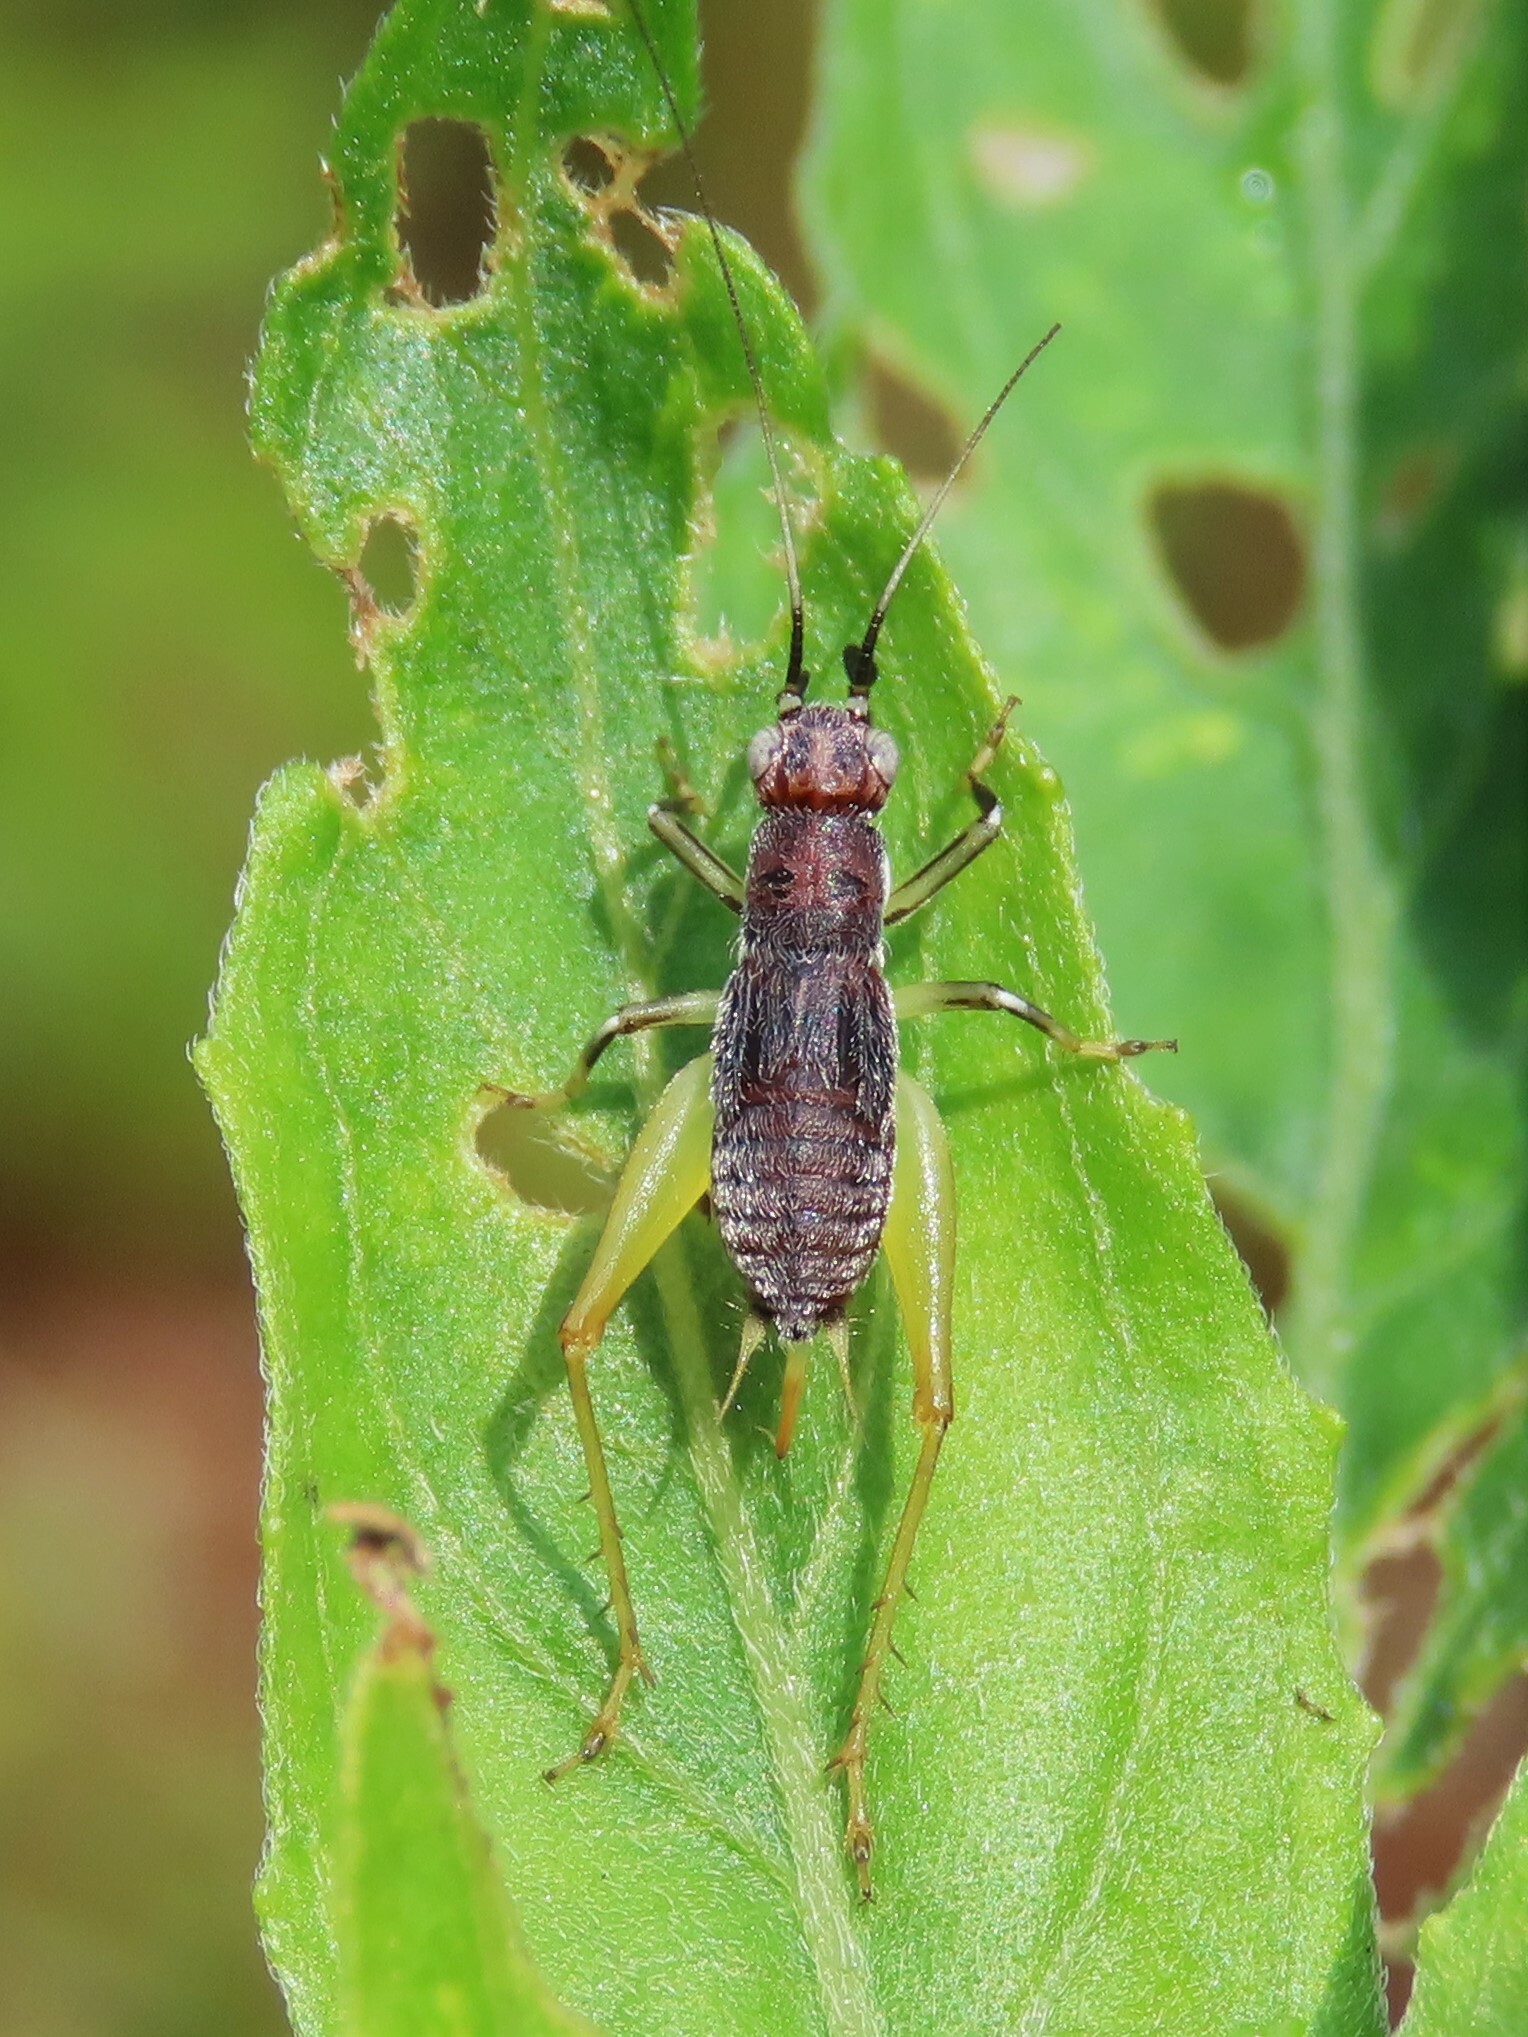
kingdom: Animalia
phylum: Arthropoda
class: Insecta
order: Orthoptera
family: Trigonidiidae
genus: Phyllopalpus
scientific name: Phyllopalpus pulchellus
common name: Handsome trig
